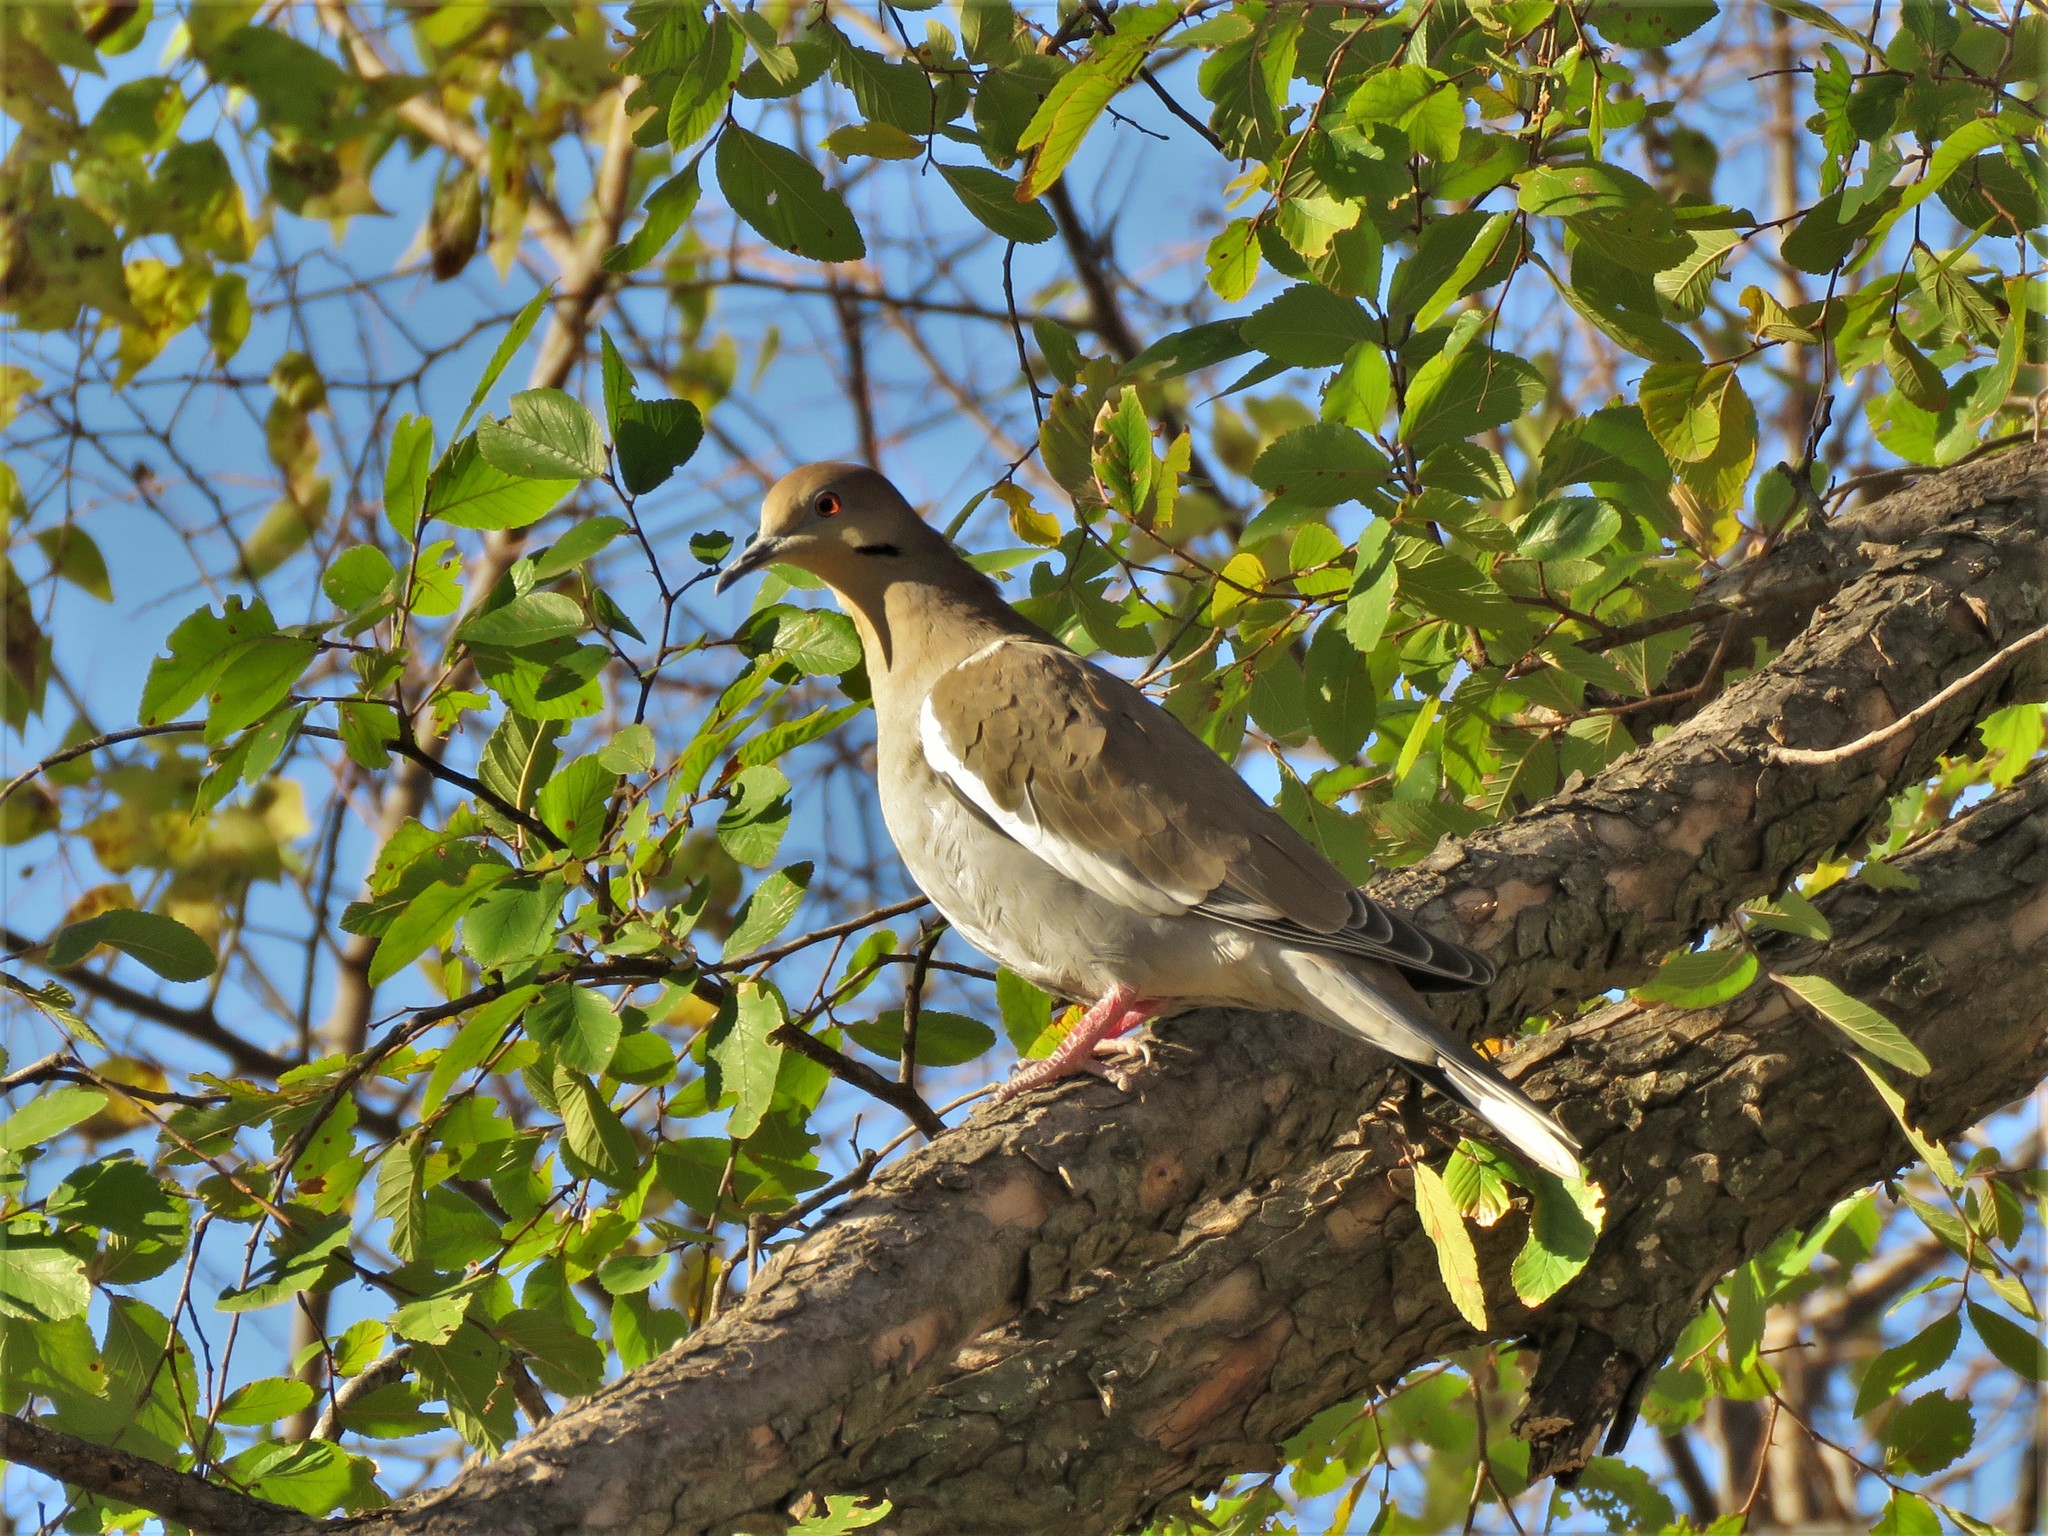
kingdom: Animalia
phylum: Chordata
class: Aves
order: Columbiformes
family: Columbidae
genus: Zenaida
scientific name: Zenaida asiatica
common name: White-winged dove
